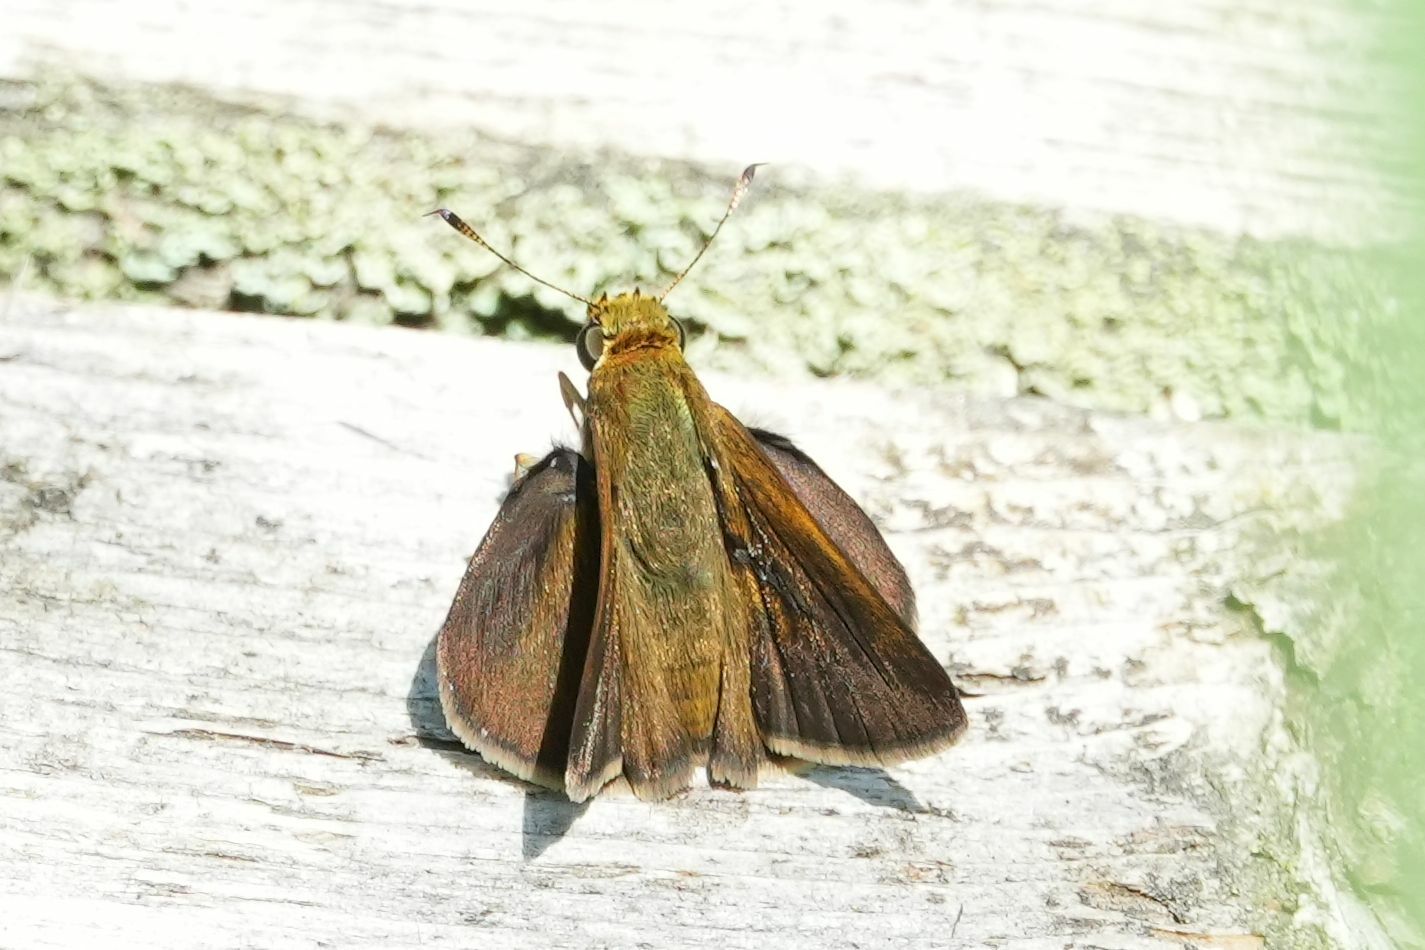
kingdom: Animalia
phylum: Arthropoda
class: Insecta
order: Lepidoptera
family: Hesperiidae
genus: Euphyes
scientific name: Euphyes vestris
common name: Dun skipper
